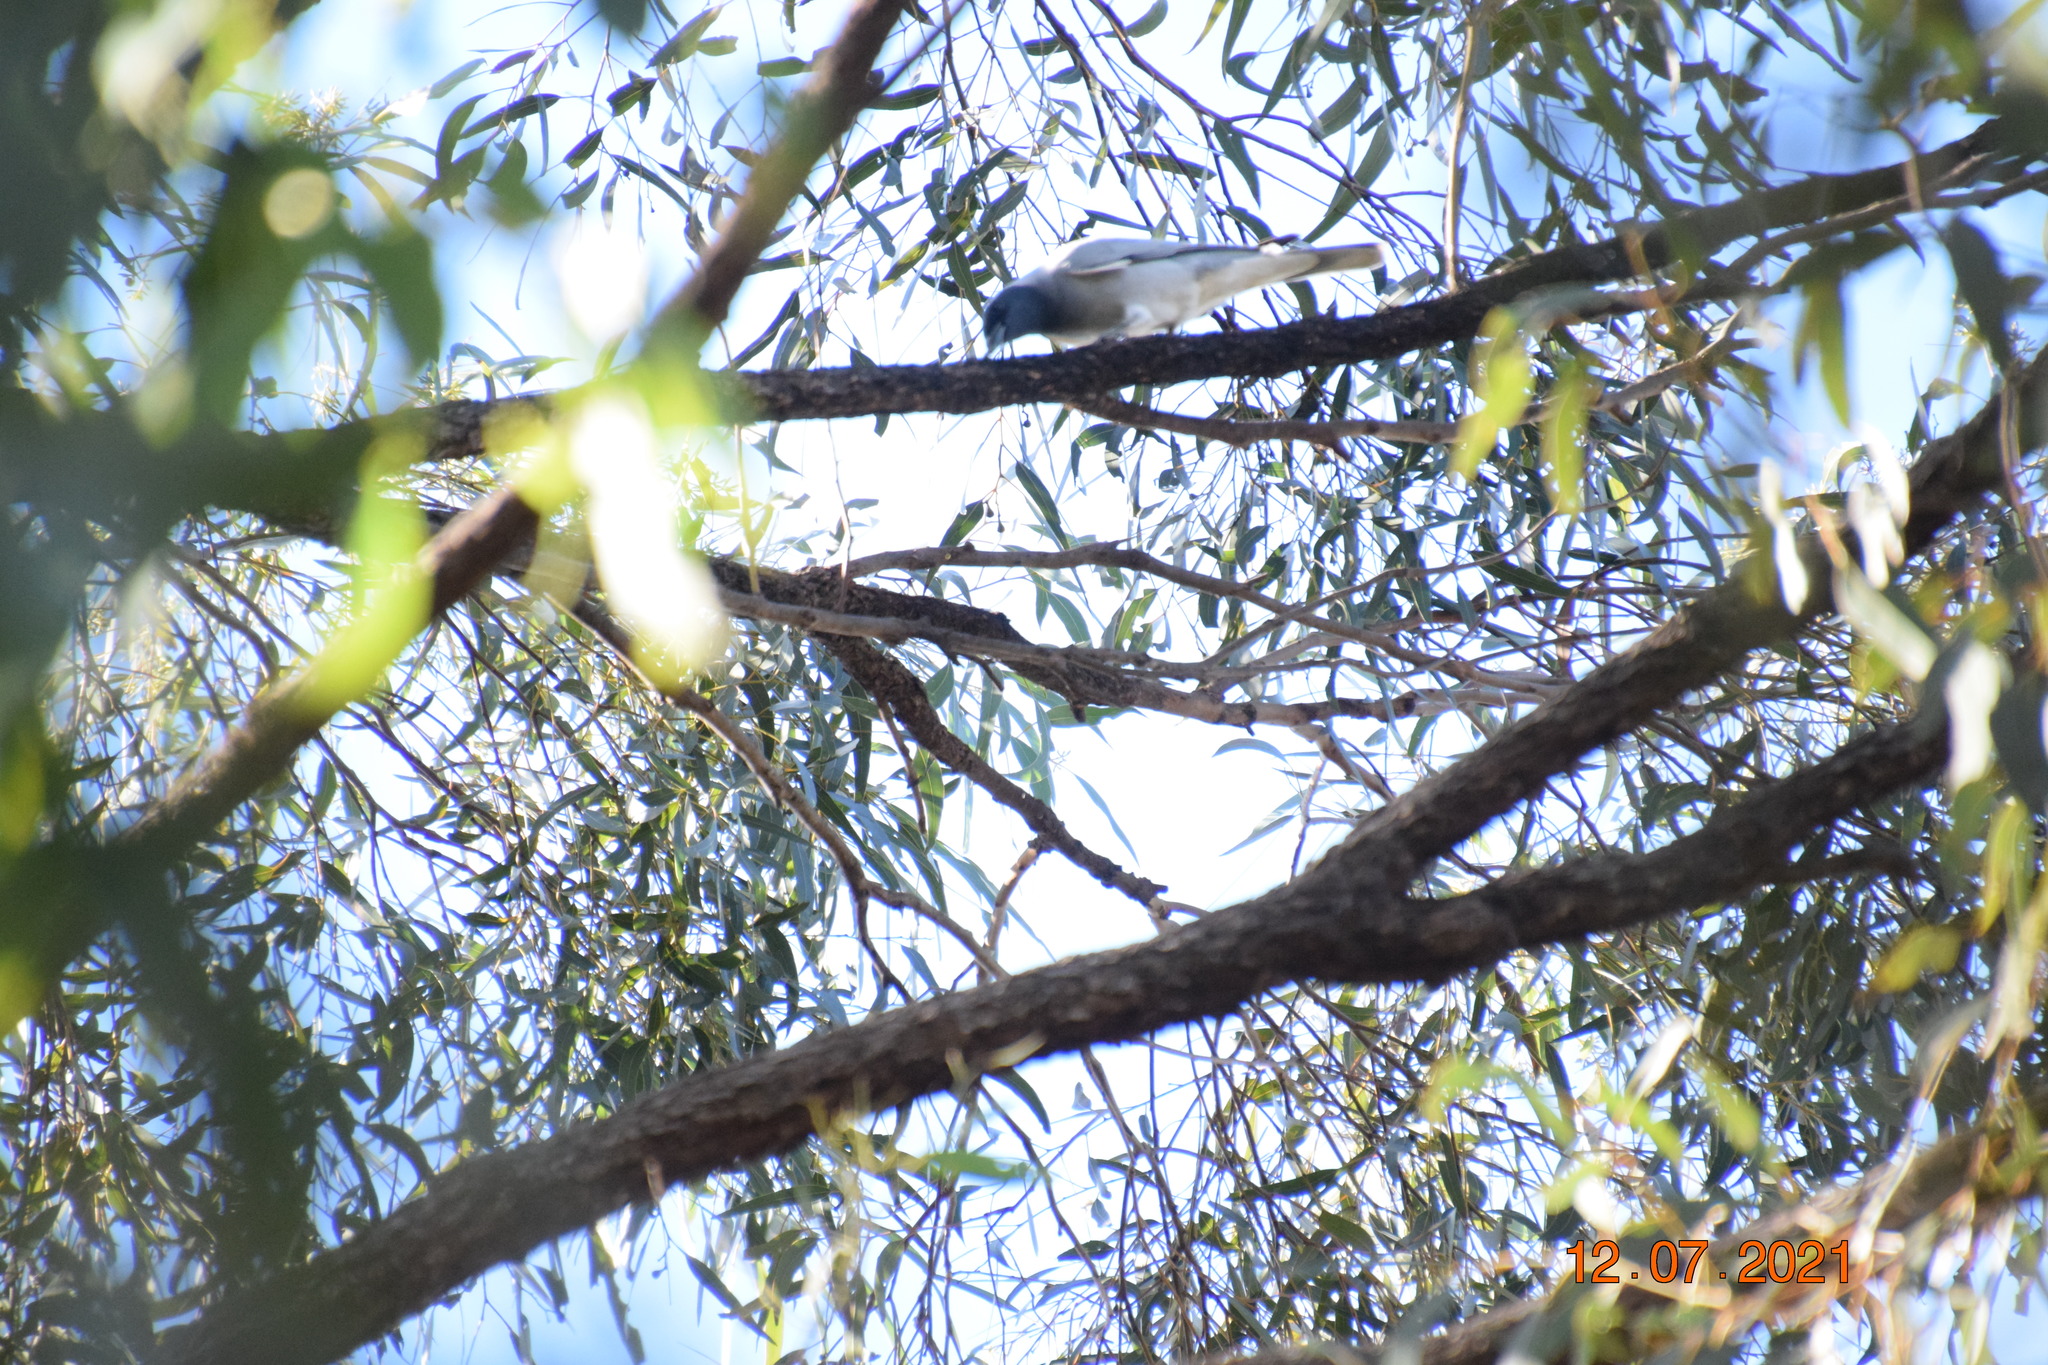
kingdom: Animalia
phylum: Chordata
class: Aves
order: Passeriformes
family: Campephagidae
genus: Coracina
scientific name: Coracina novaehollandiae
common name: Black-faced cuckooshrike
